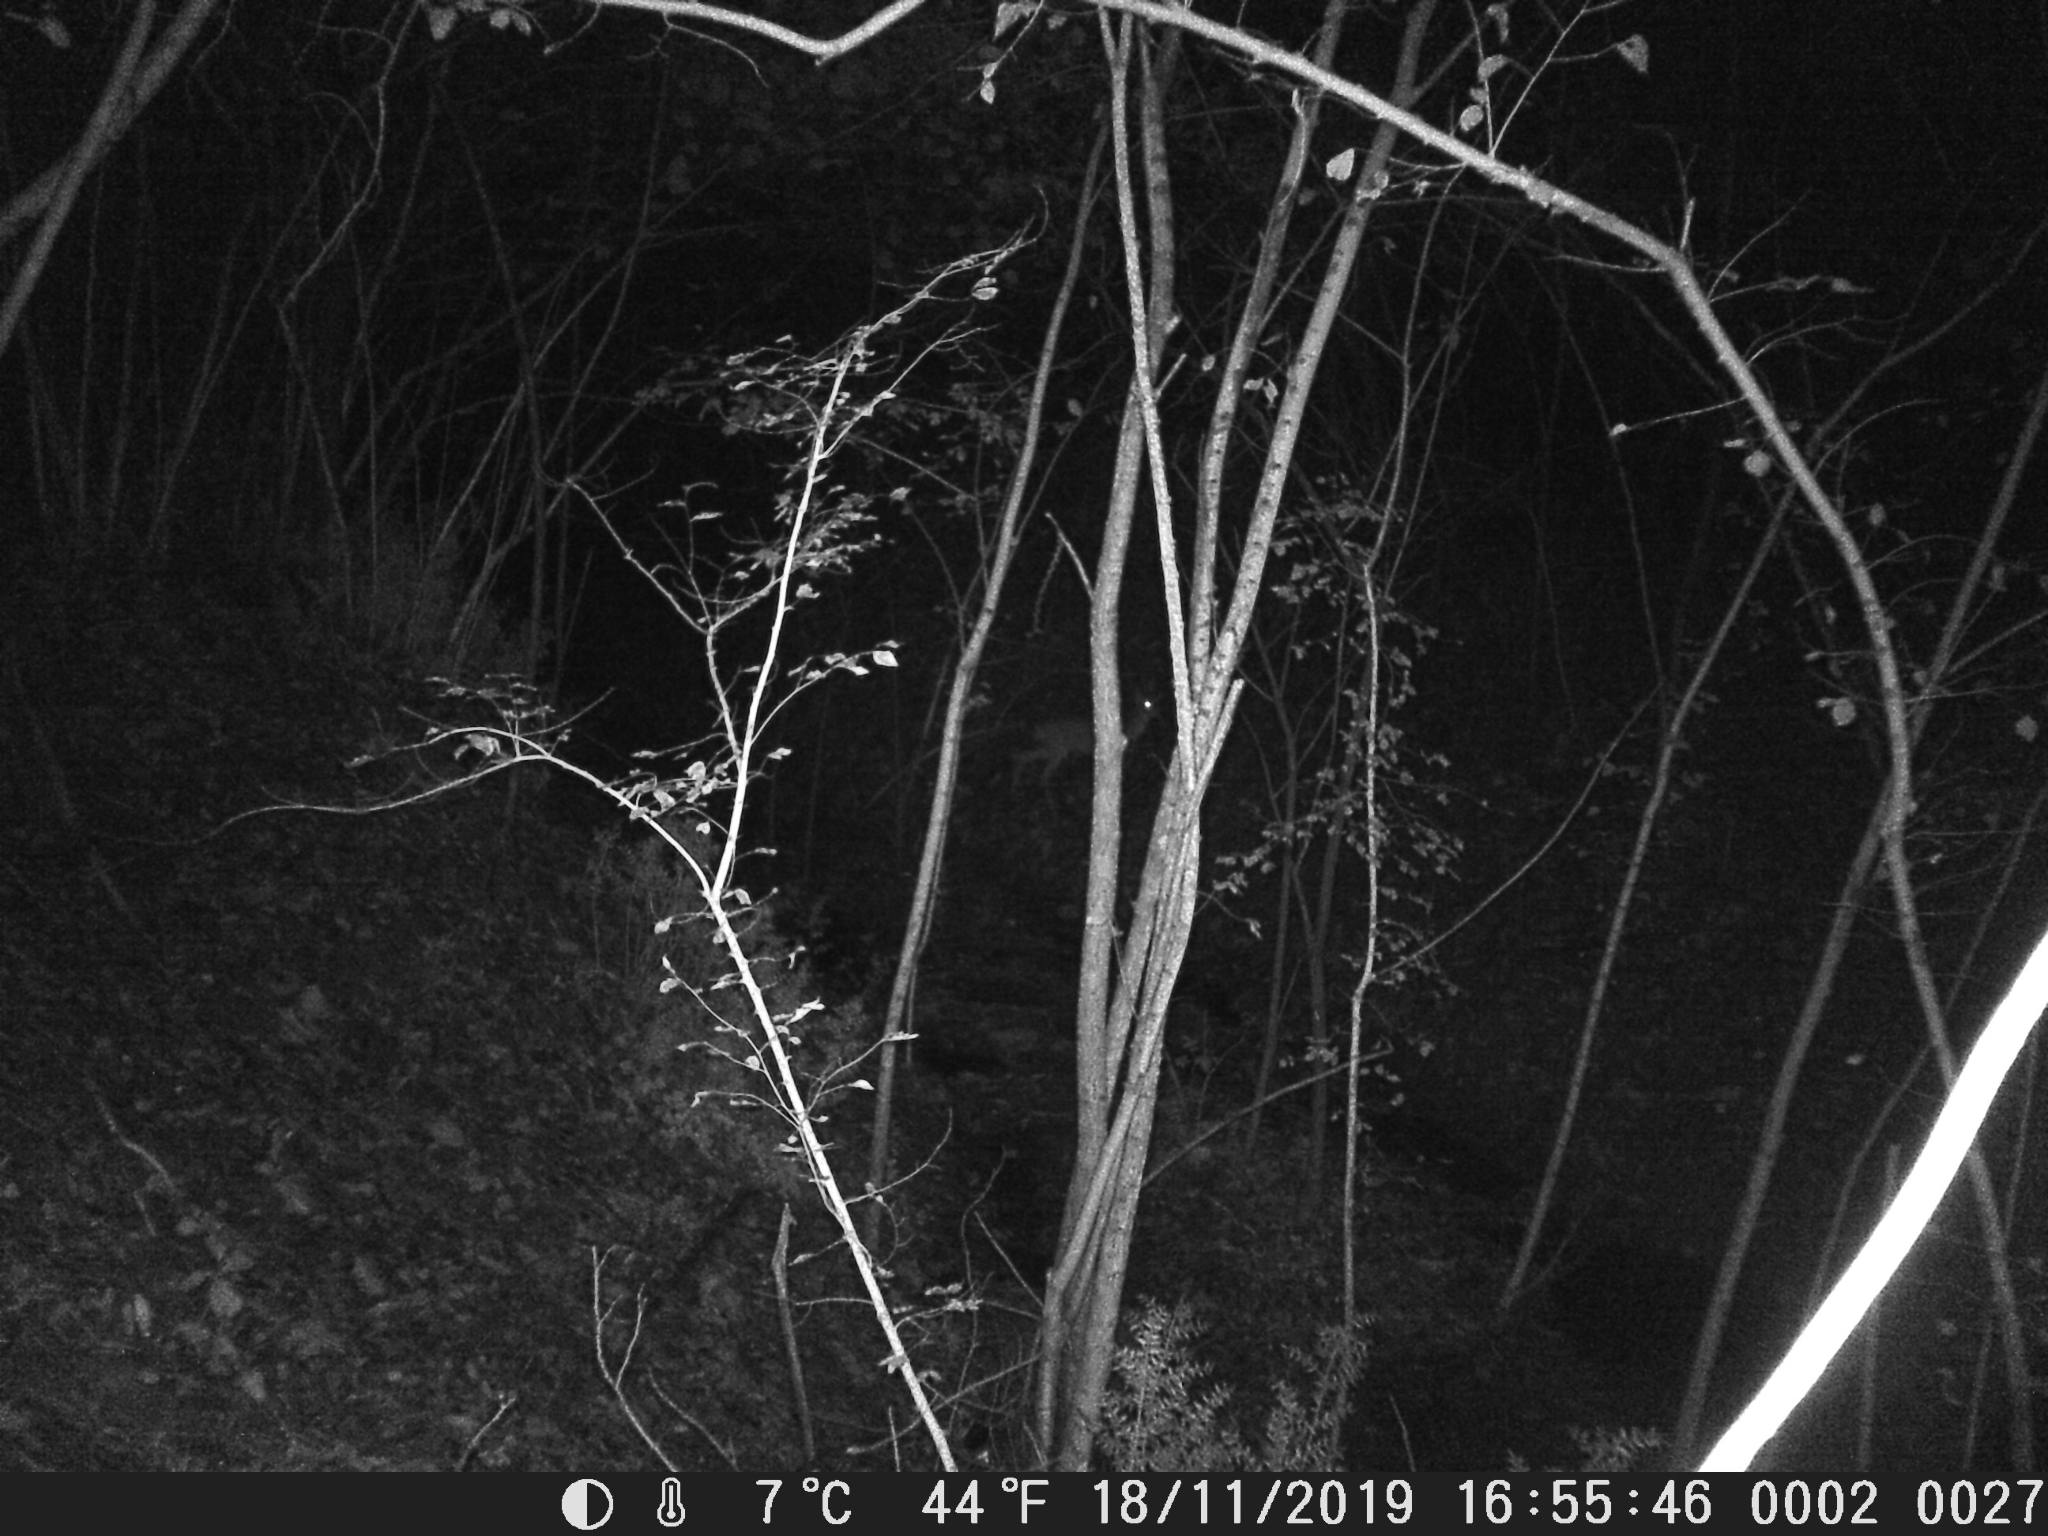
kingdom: Animalia
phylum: Chordata
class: Mammalia
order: Artiodactyla
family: Cervidae
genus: Capreolus
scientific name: Capreolus capreolus
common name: Western roe deer
